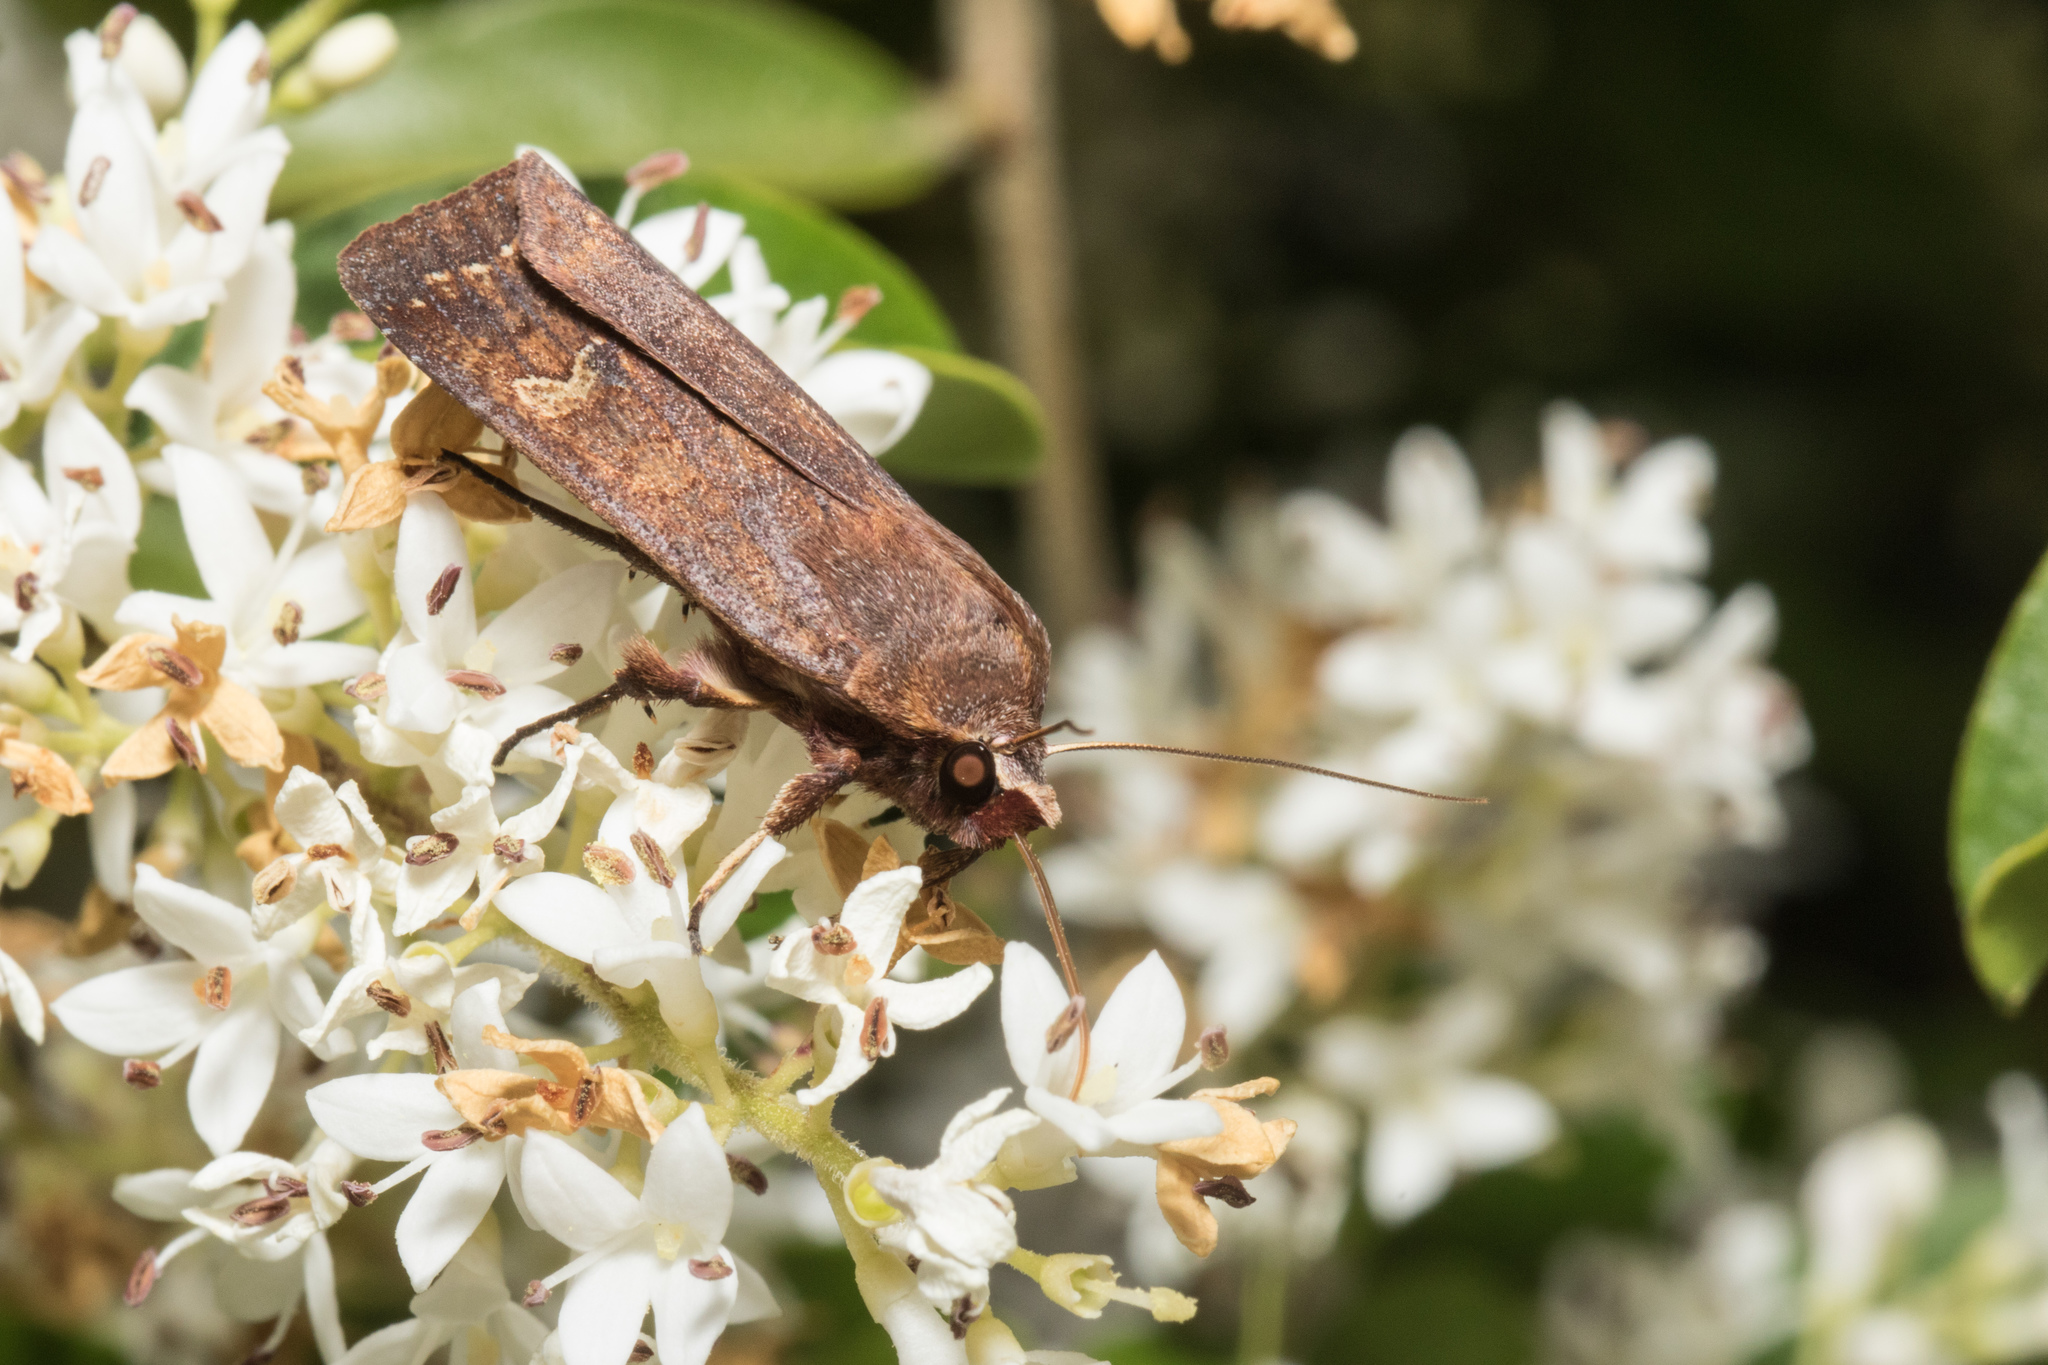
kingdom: Animalia
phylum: Arthropoda
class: Insecta
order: Lepidoptera
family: Noctuidae
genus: Diarsia
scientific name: Diarsia intermixta
